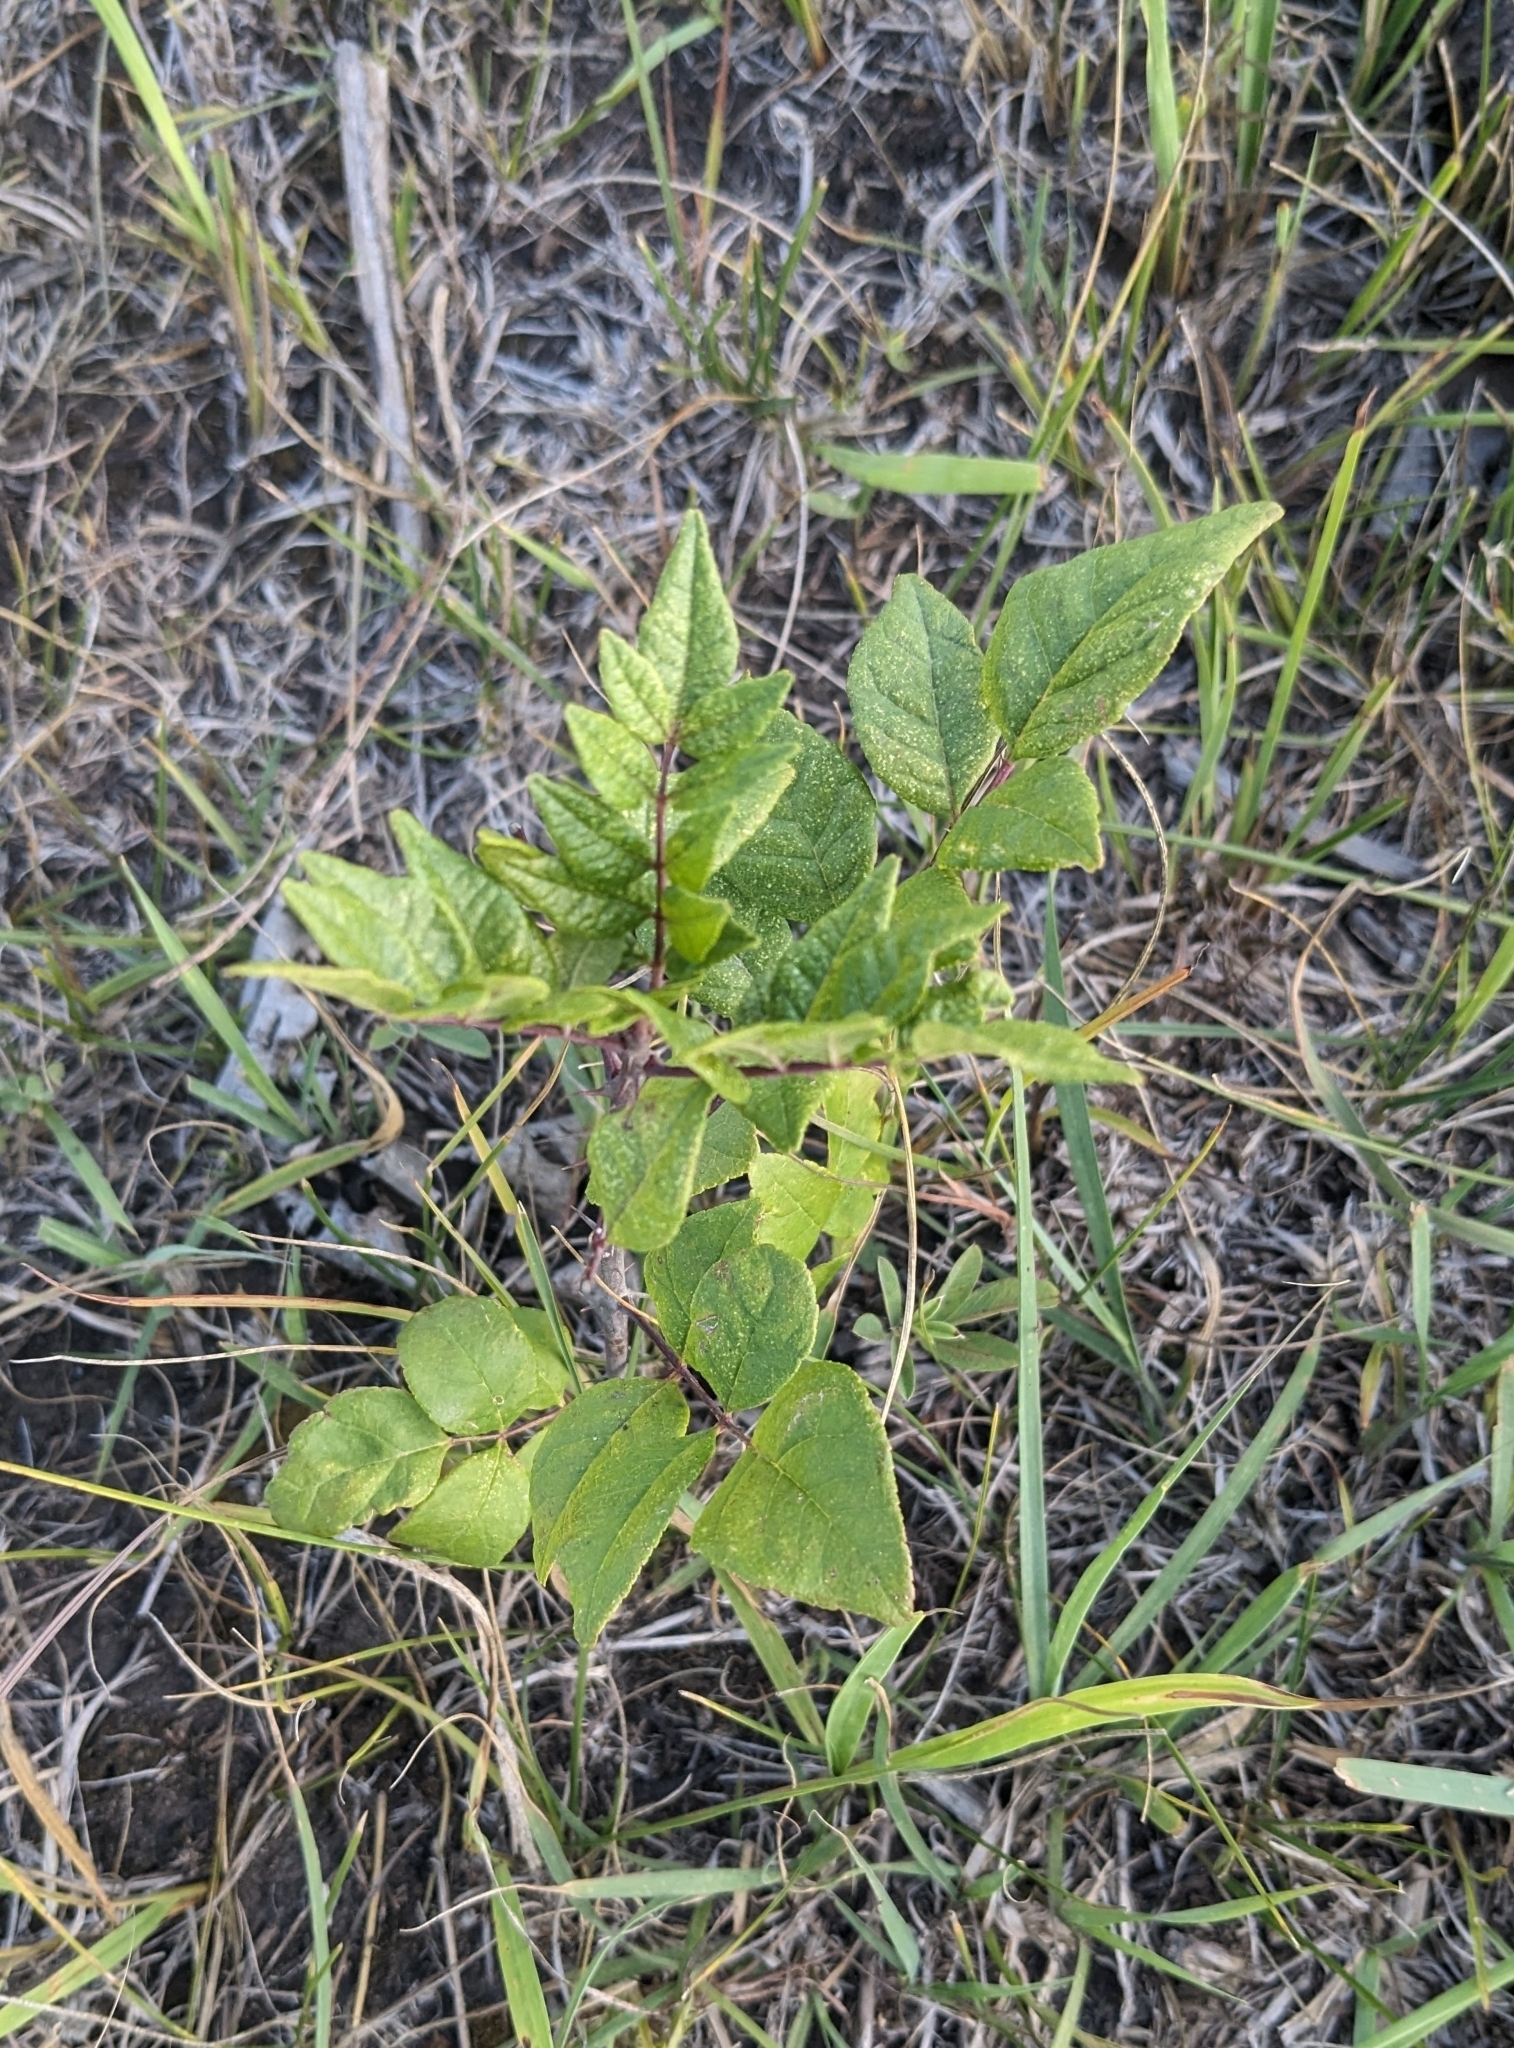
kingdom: Plantae
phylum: Tracheophyta
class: Magnoliopsida
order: Sapindales
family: Rutaceae
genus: Zanthoxylum
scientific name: Zanthoxylum americanum
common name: Northern prickly-ash
